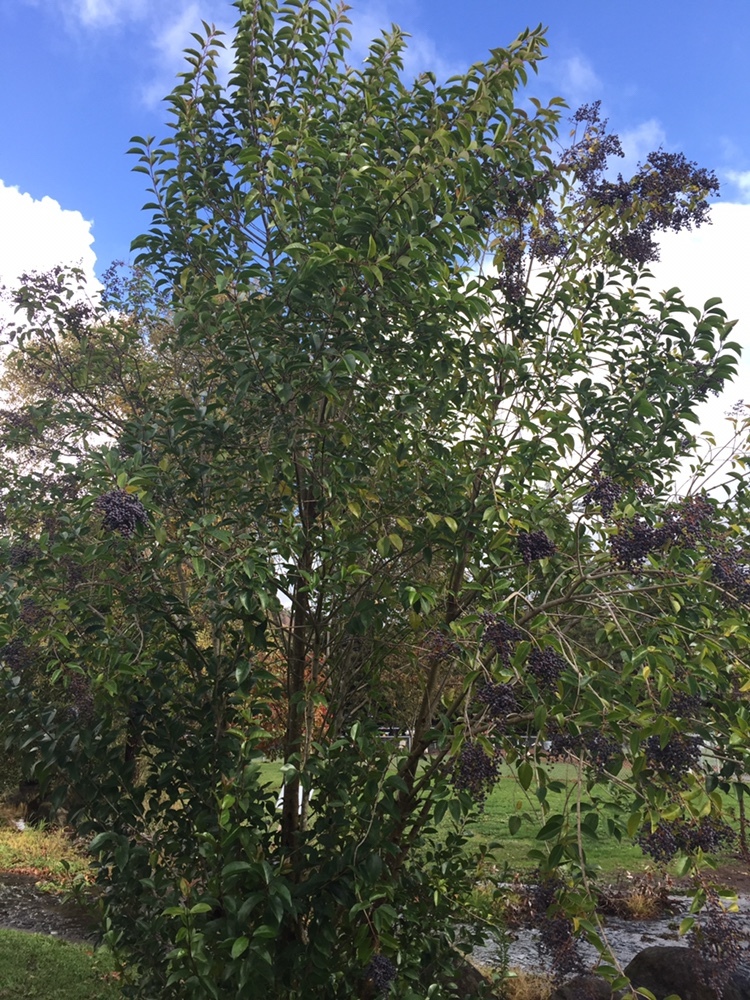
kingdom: Plantae
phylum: Tracheophyta
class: Magnoliopsida
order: Lamiales
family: Oleaceae
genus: Ligustrum
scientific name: Ligustrum lucidum
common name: Glossy privet
